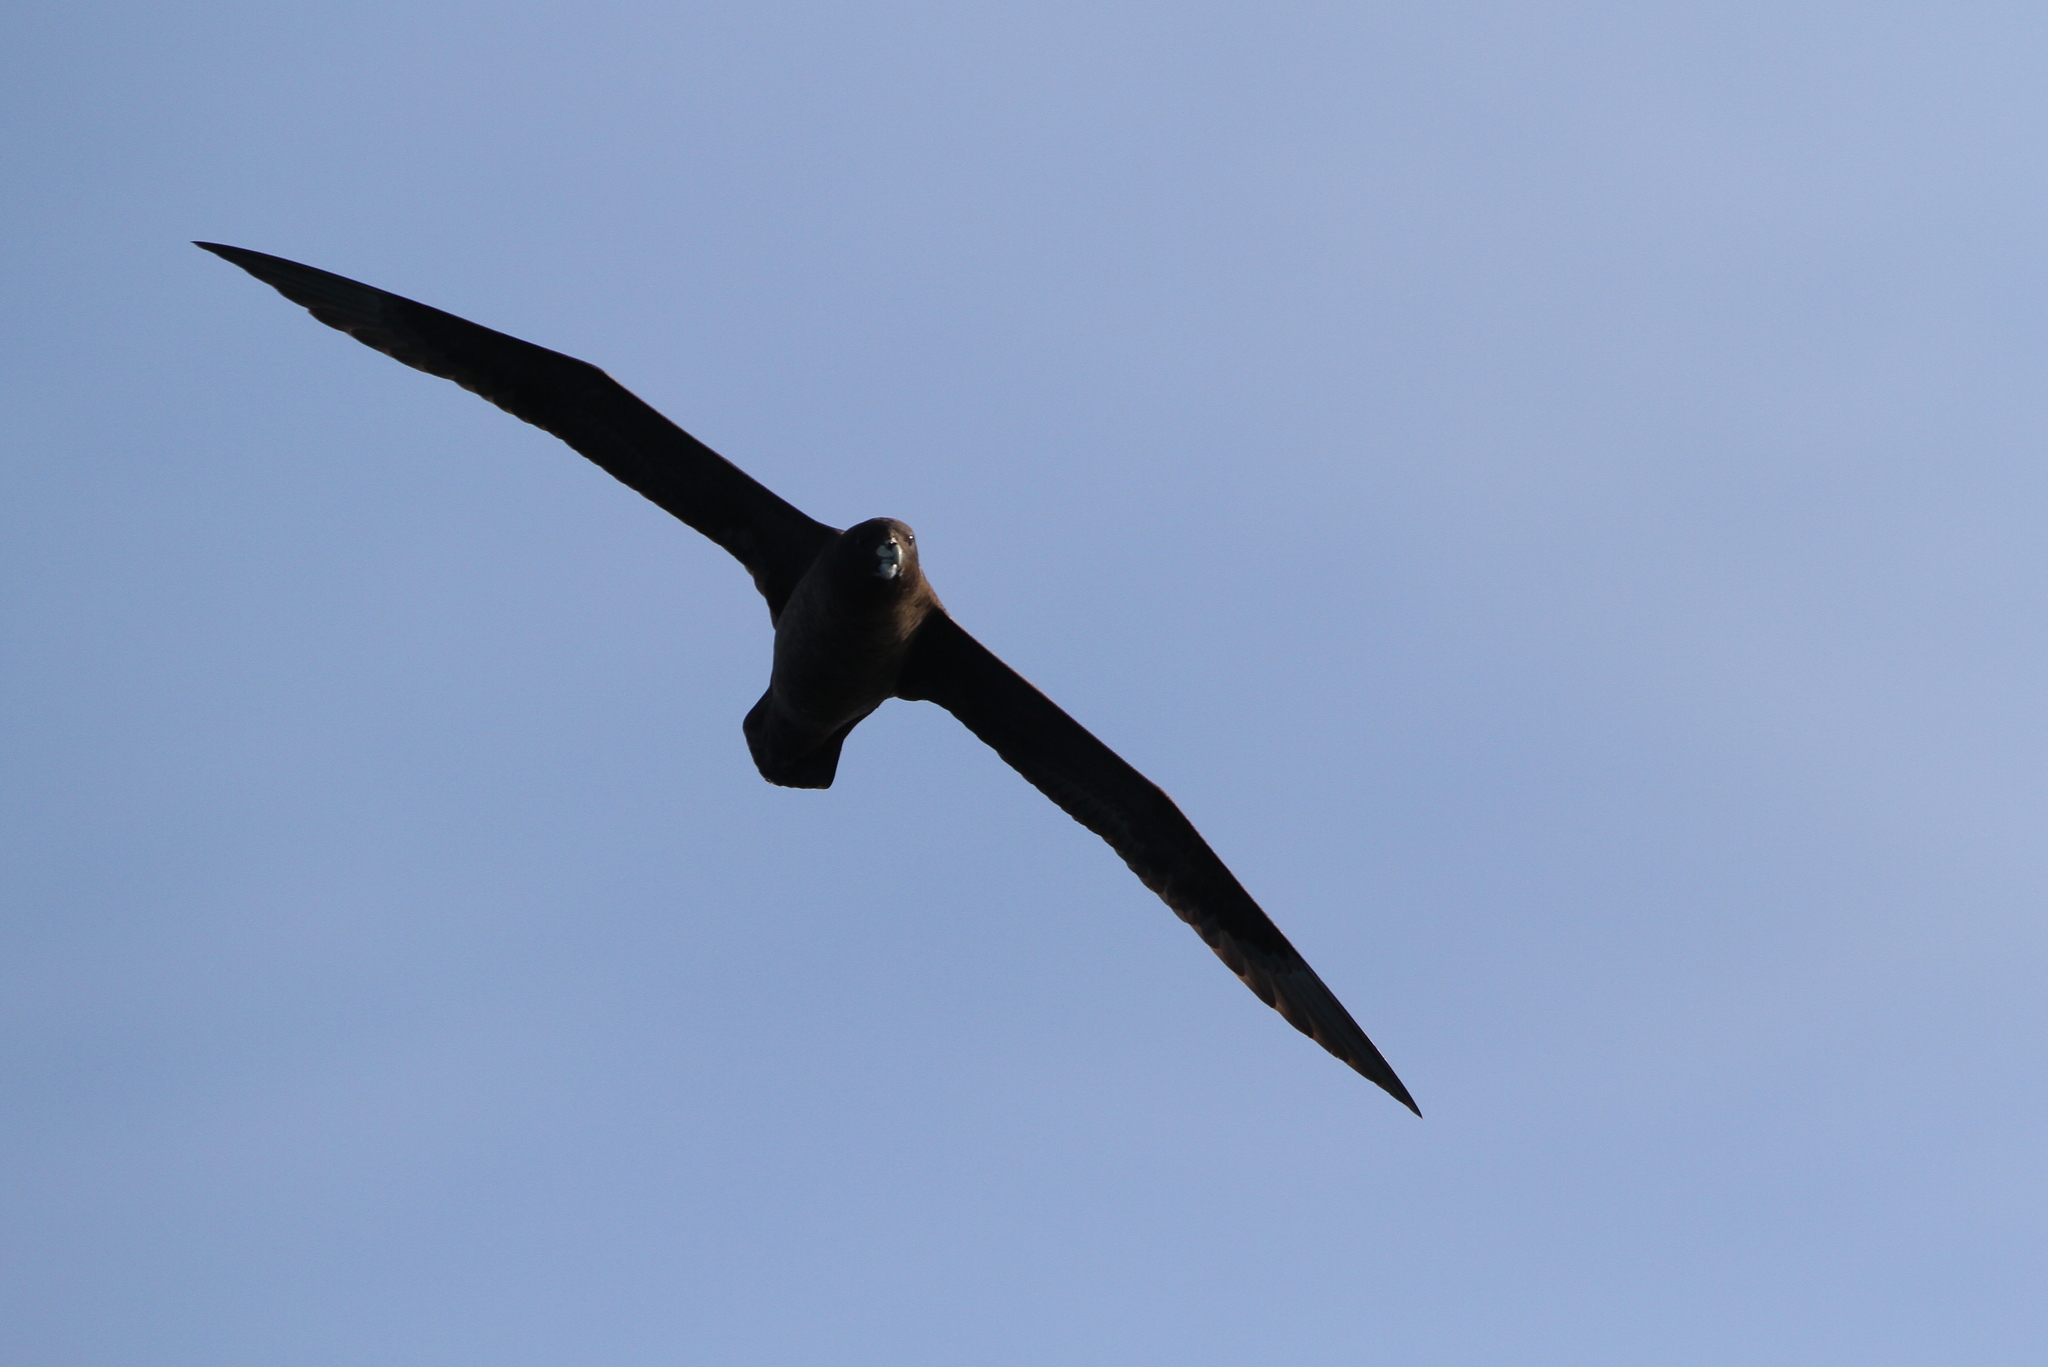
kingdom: Animalia
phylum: Chordata
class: Aves
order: Procellariiformes
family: Procellariidae
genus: Procellaria
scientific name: Procellaria aequinoctialis
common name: White-chinned petrel
